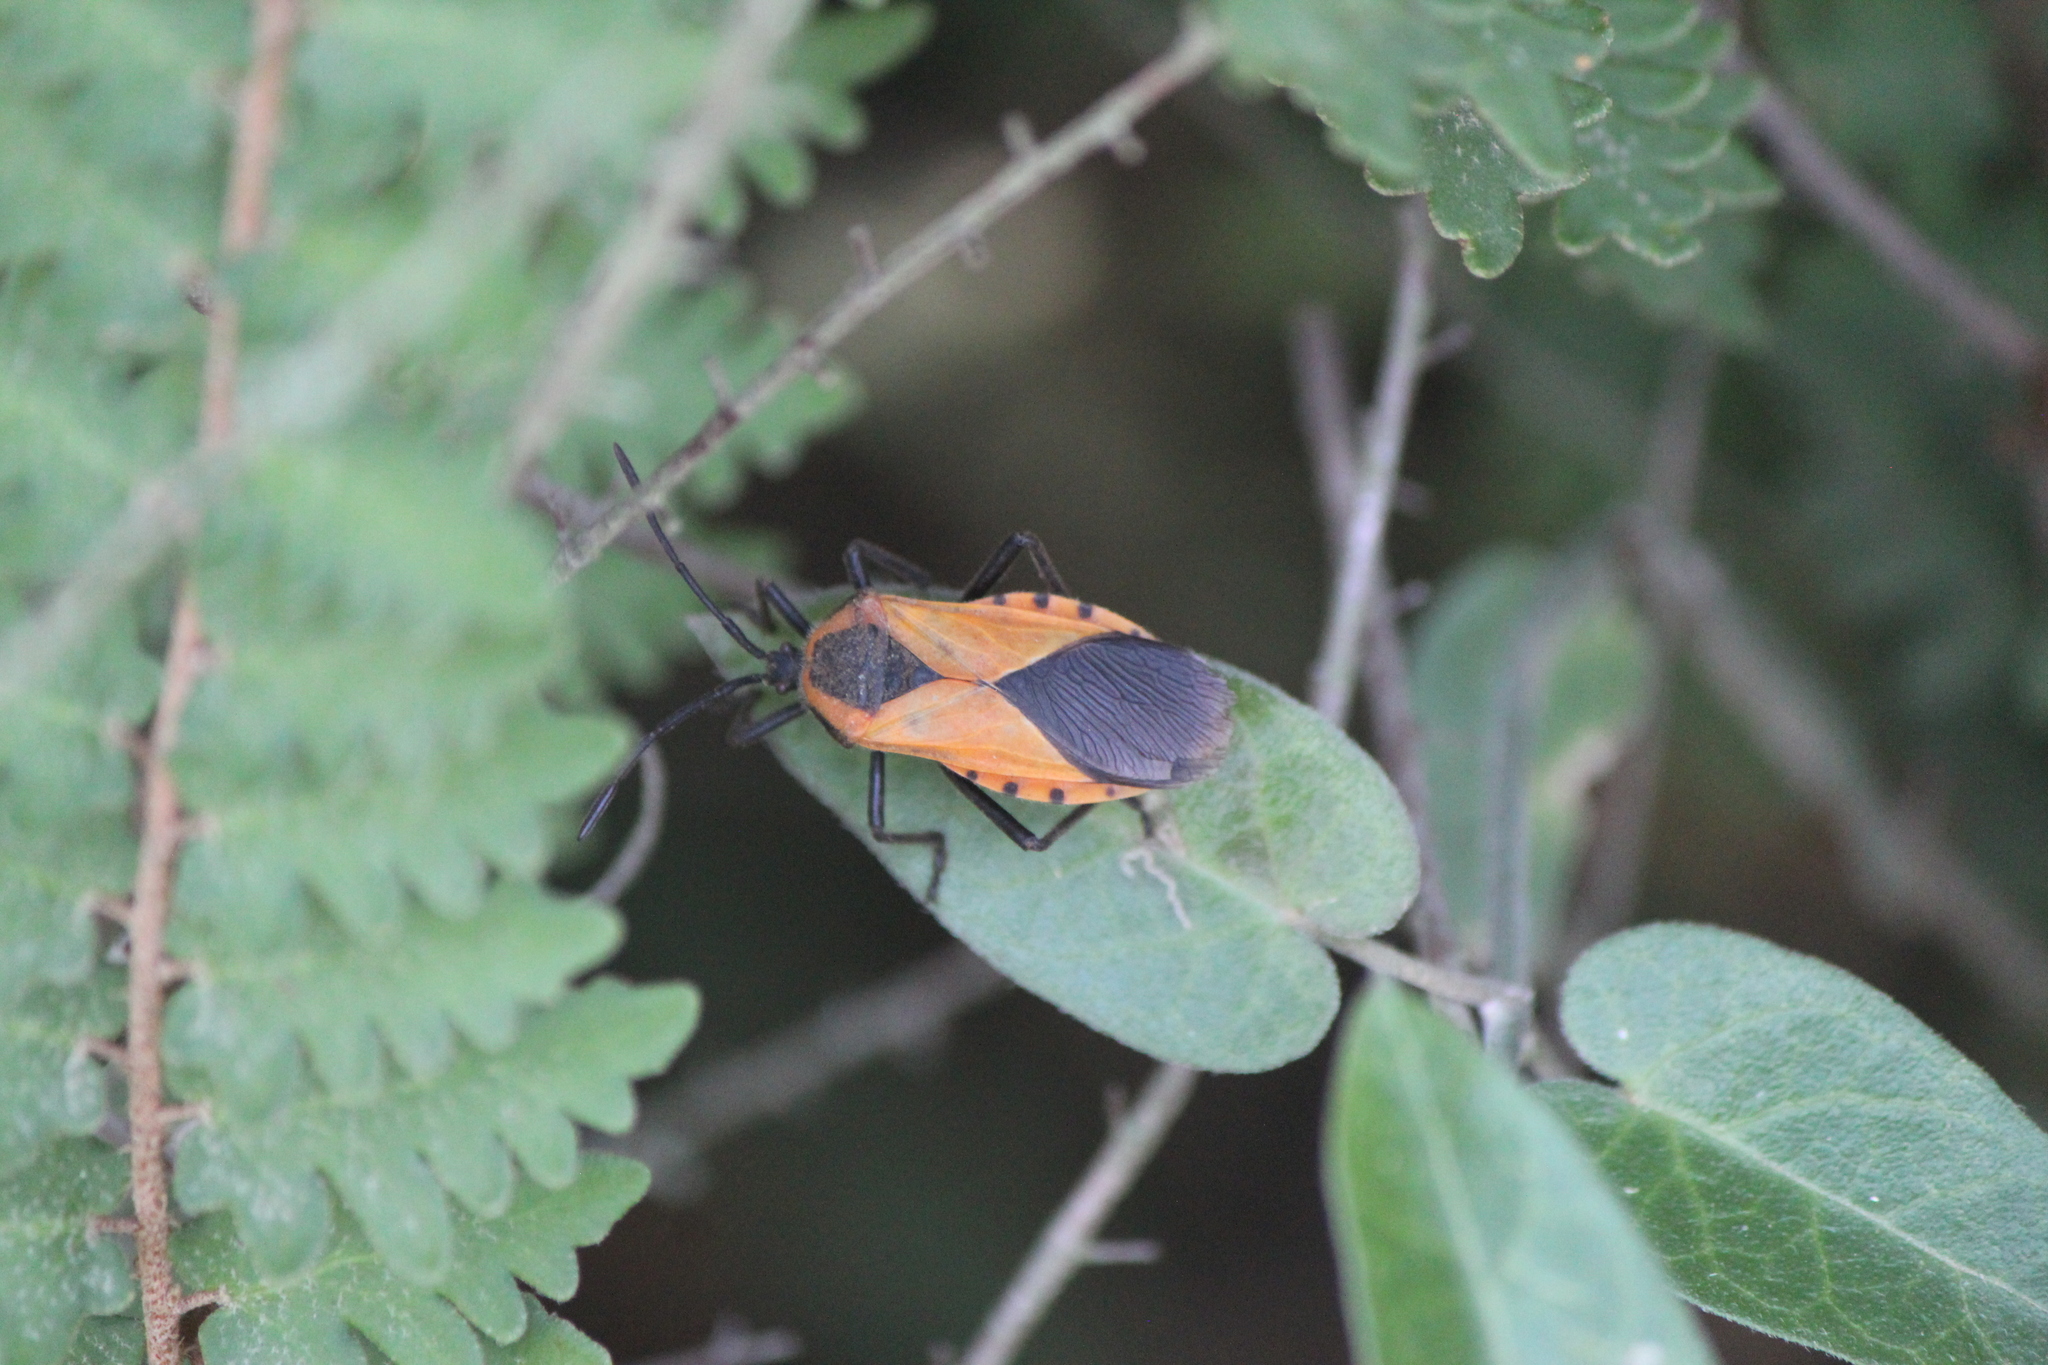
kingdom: Animalia
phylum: Arthropoda
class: Insecta
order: Hemiptera
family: Coreidae
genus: Sephina
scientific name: Sephina dorsalis
